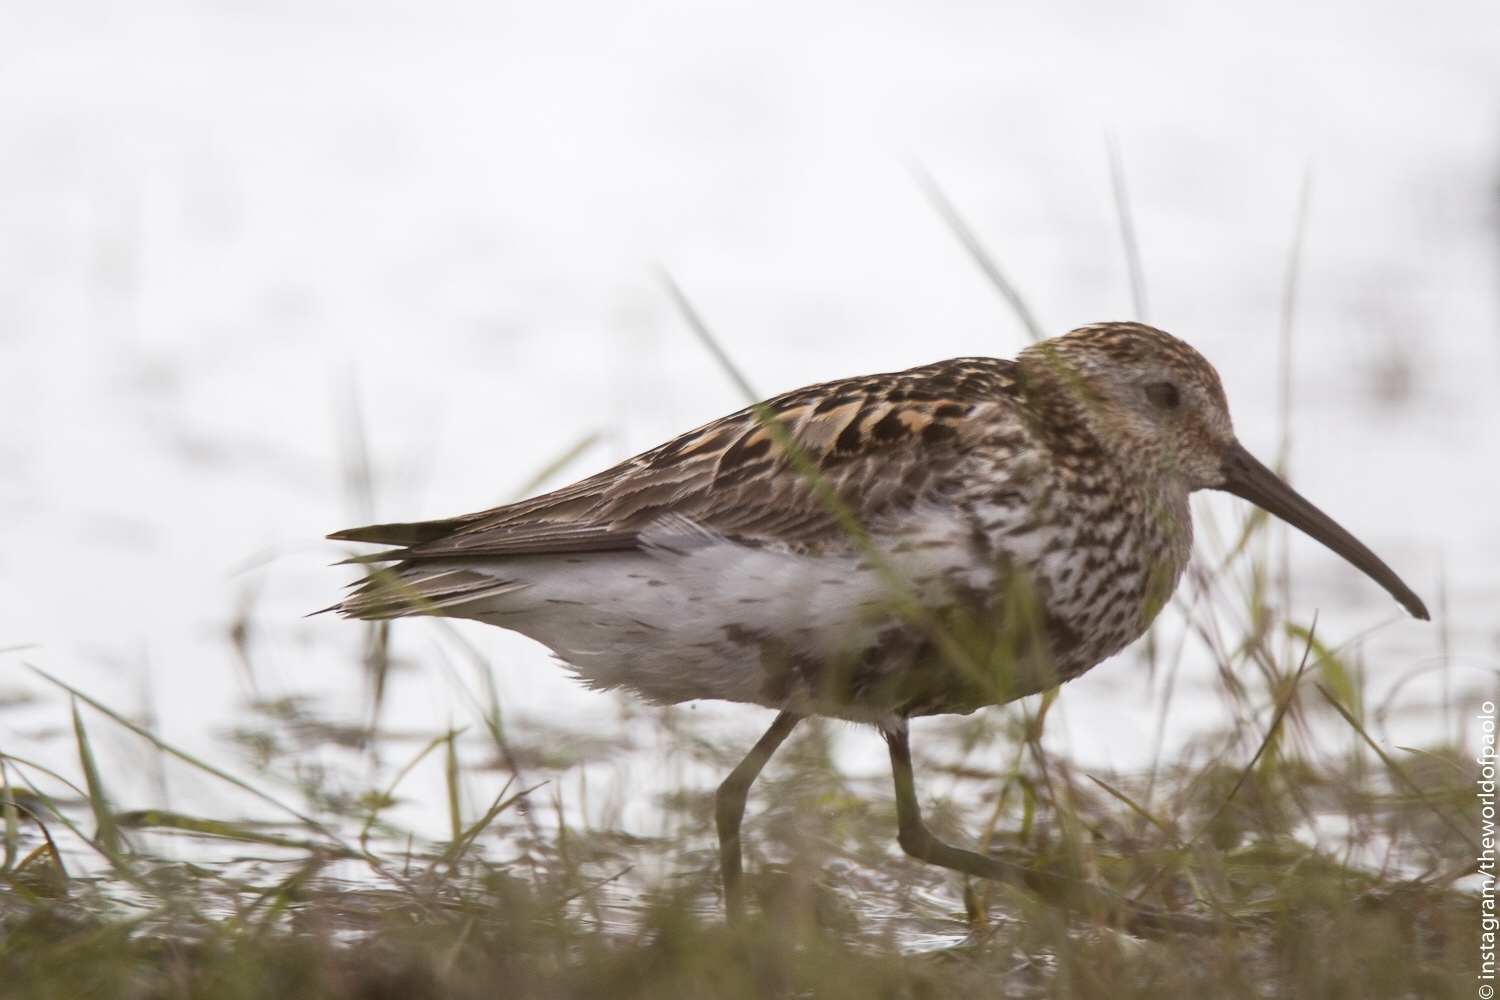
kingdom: Animalia
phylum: Chordata
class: Aves
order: Charadriiformes
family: Scolopacidae
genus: Calidris
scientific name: Calidris alpina
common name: Dunlin
